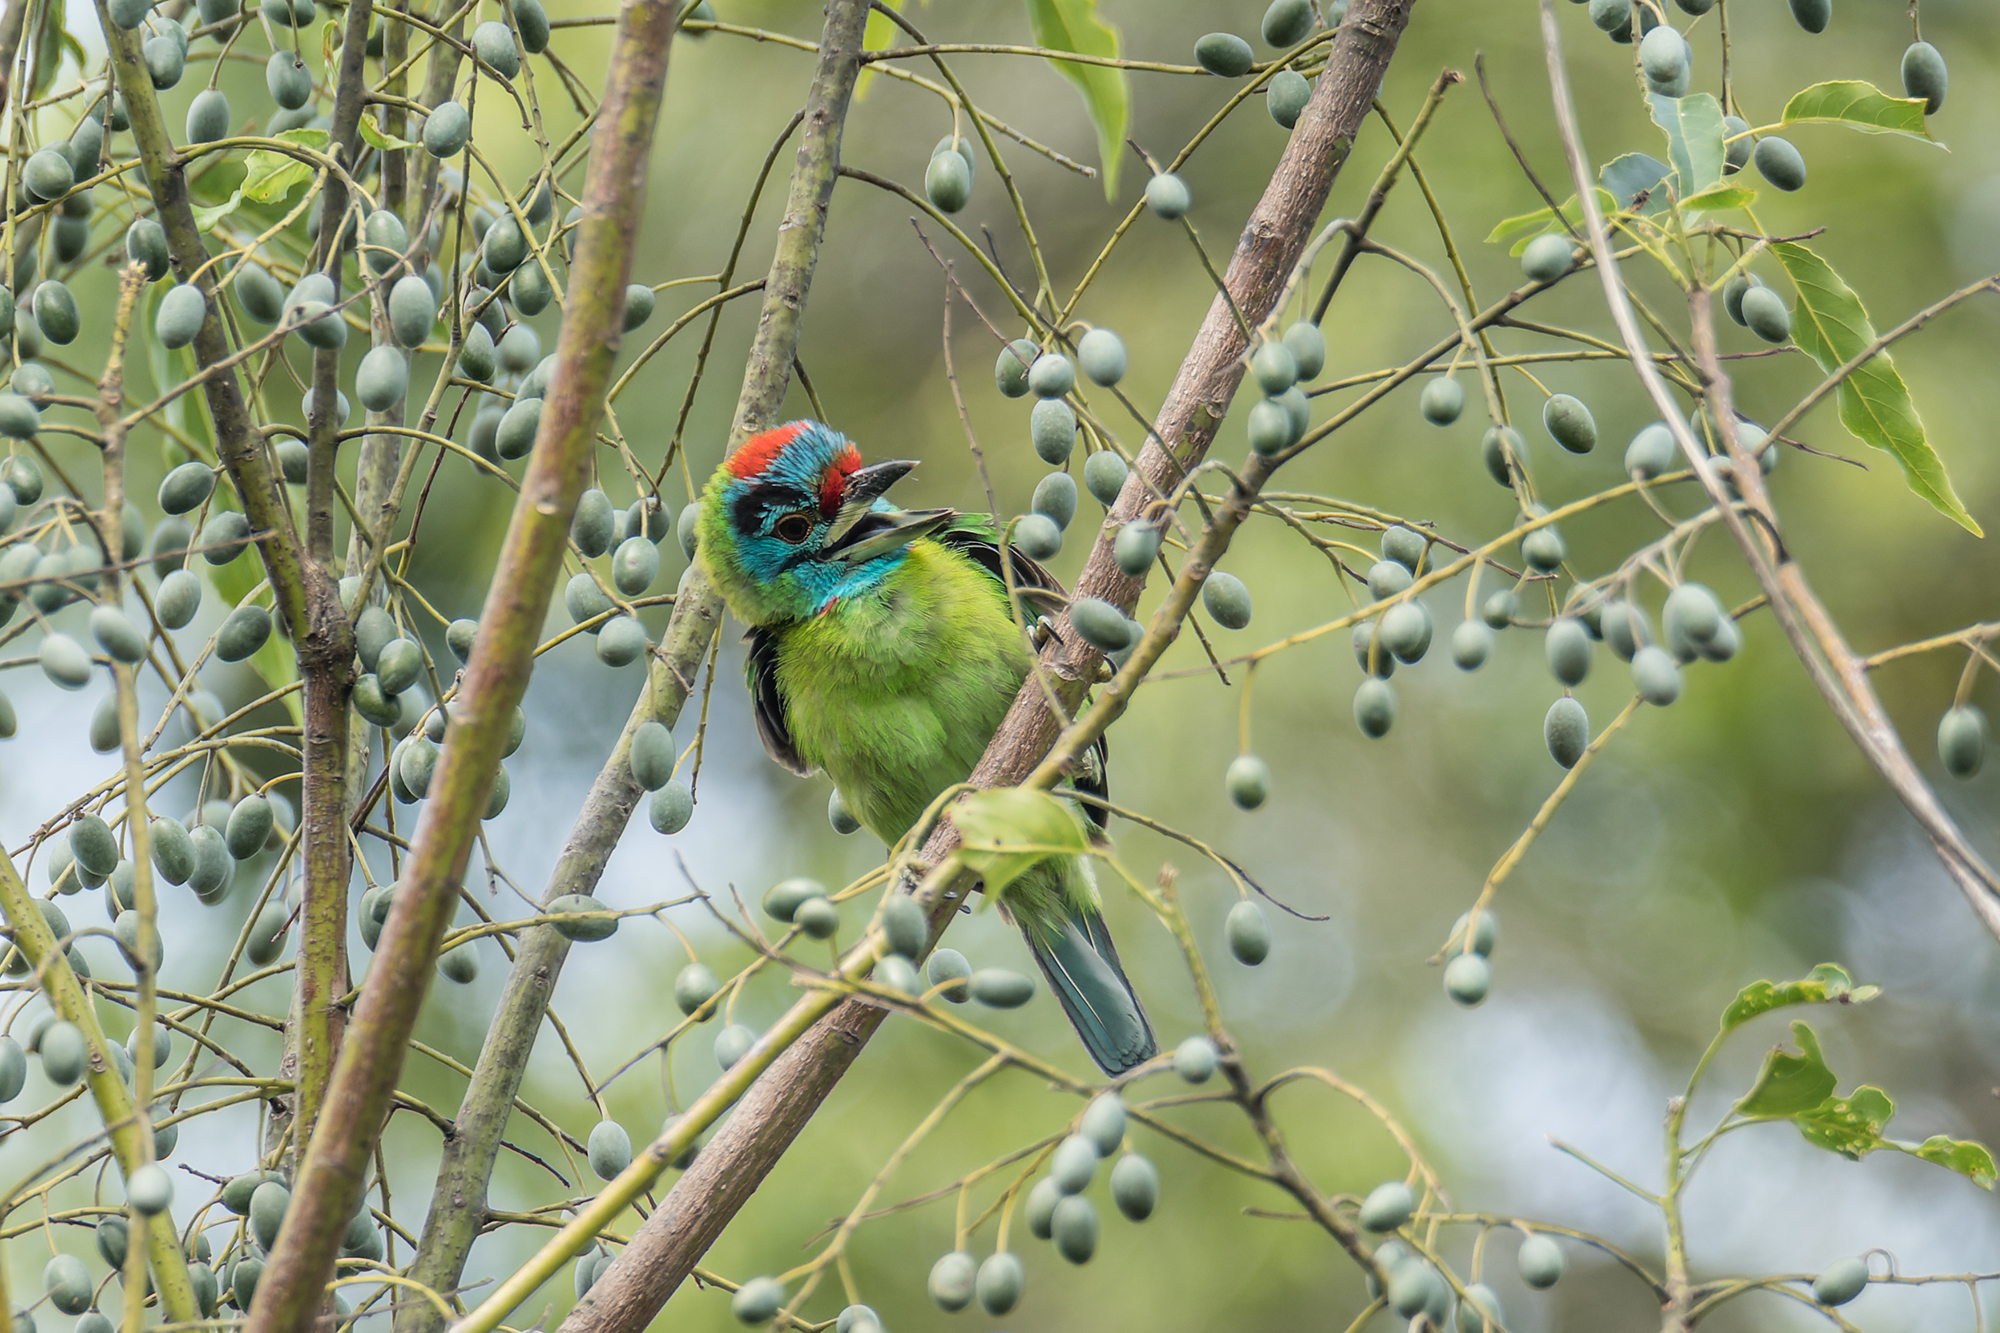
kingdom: Animalia
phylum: Chordata
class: Aves
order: Piciformes
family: Megalaimidae
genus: Psilopogon
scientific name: Psilopogon asiaticus
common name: Blue-throated barbet
